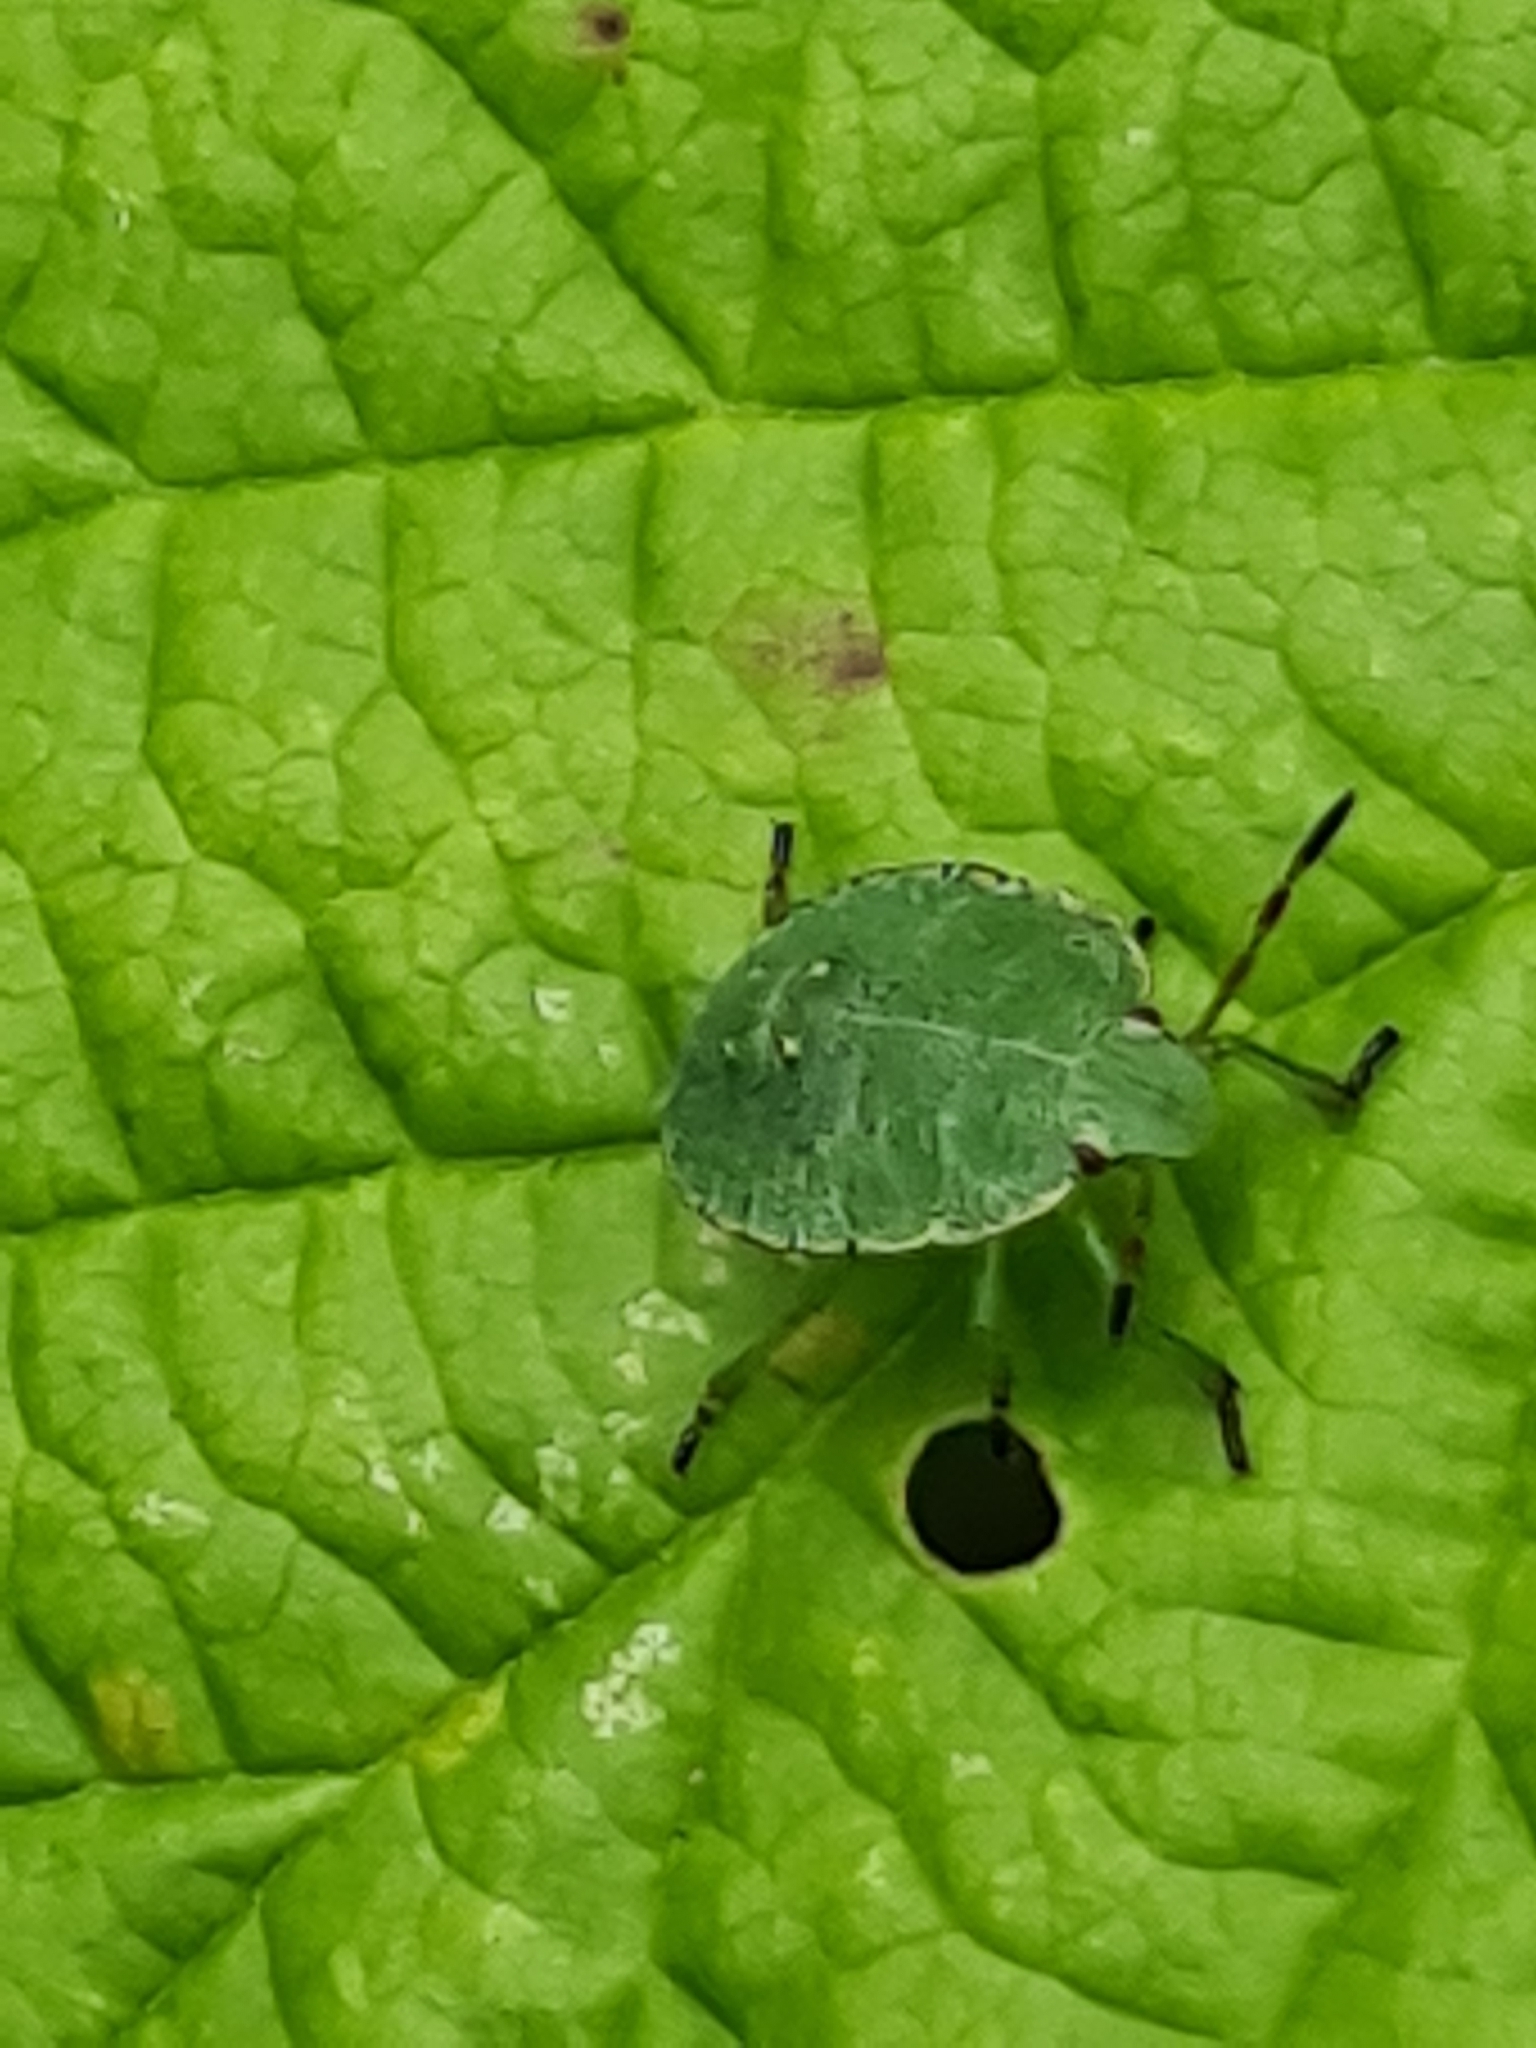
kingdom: Animalia
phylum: Arthropoda
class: Insecta
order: Hemiptera
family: Pentatomidae
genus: Palomena
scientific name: Palomena prasina
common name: Green shieldbug
